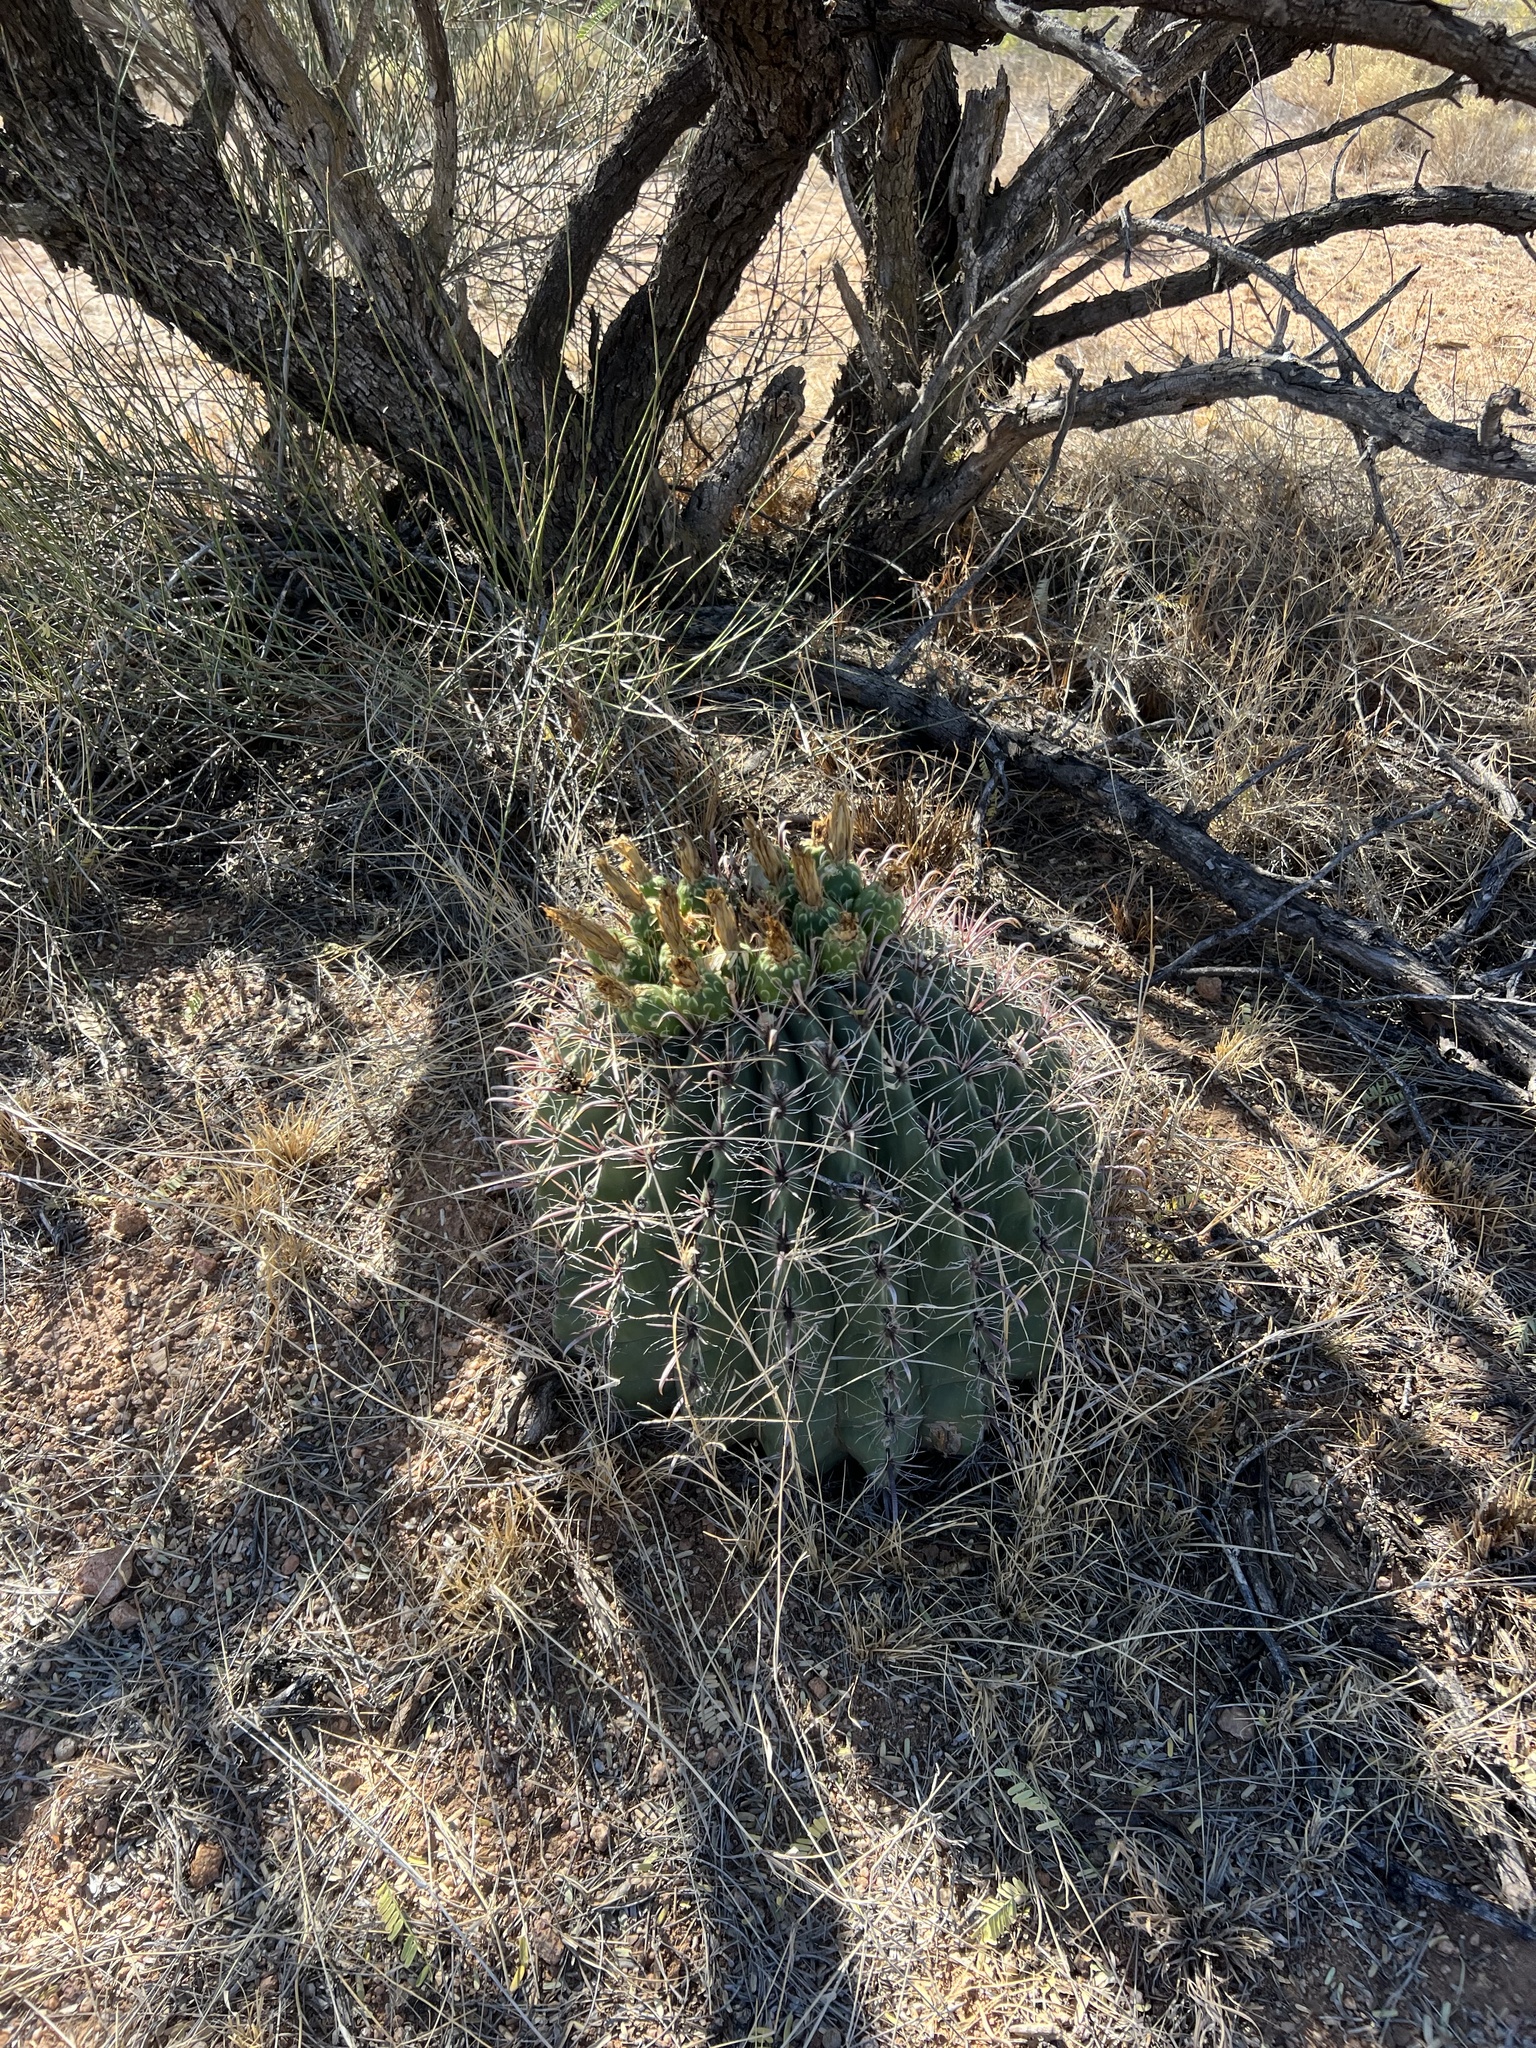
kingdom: Plantae
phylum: Tracheophyta
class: Magnoliopsida
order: Caryophyllales
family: Cactaceae
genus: Ferocactus
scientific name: Ferocactus wislizeni
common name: Candy barrel cactus
